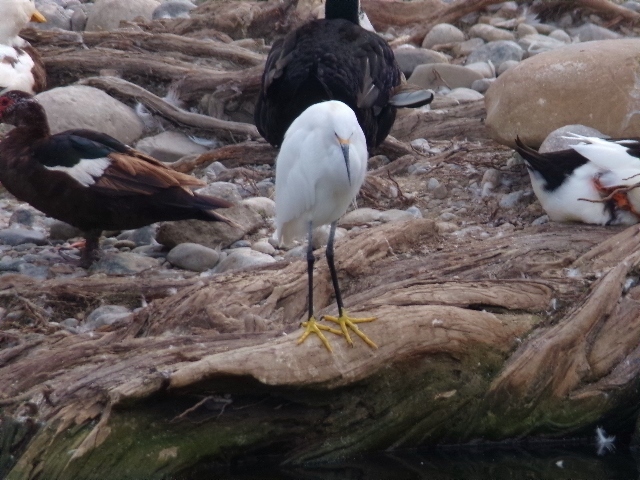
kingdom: Animalia
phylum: Chordata
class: Aves
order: Pelecaniformes
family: Ardeidae
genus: Egretta
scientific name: Egretta thula
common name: Snowy egret
